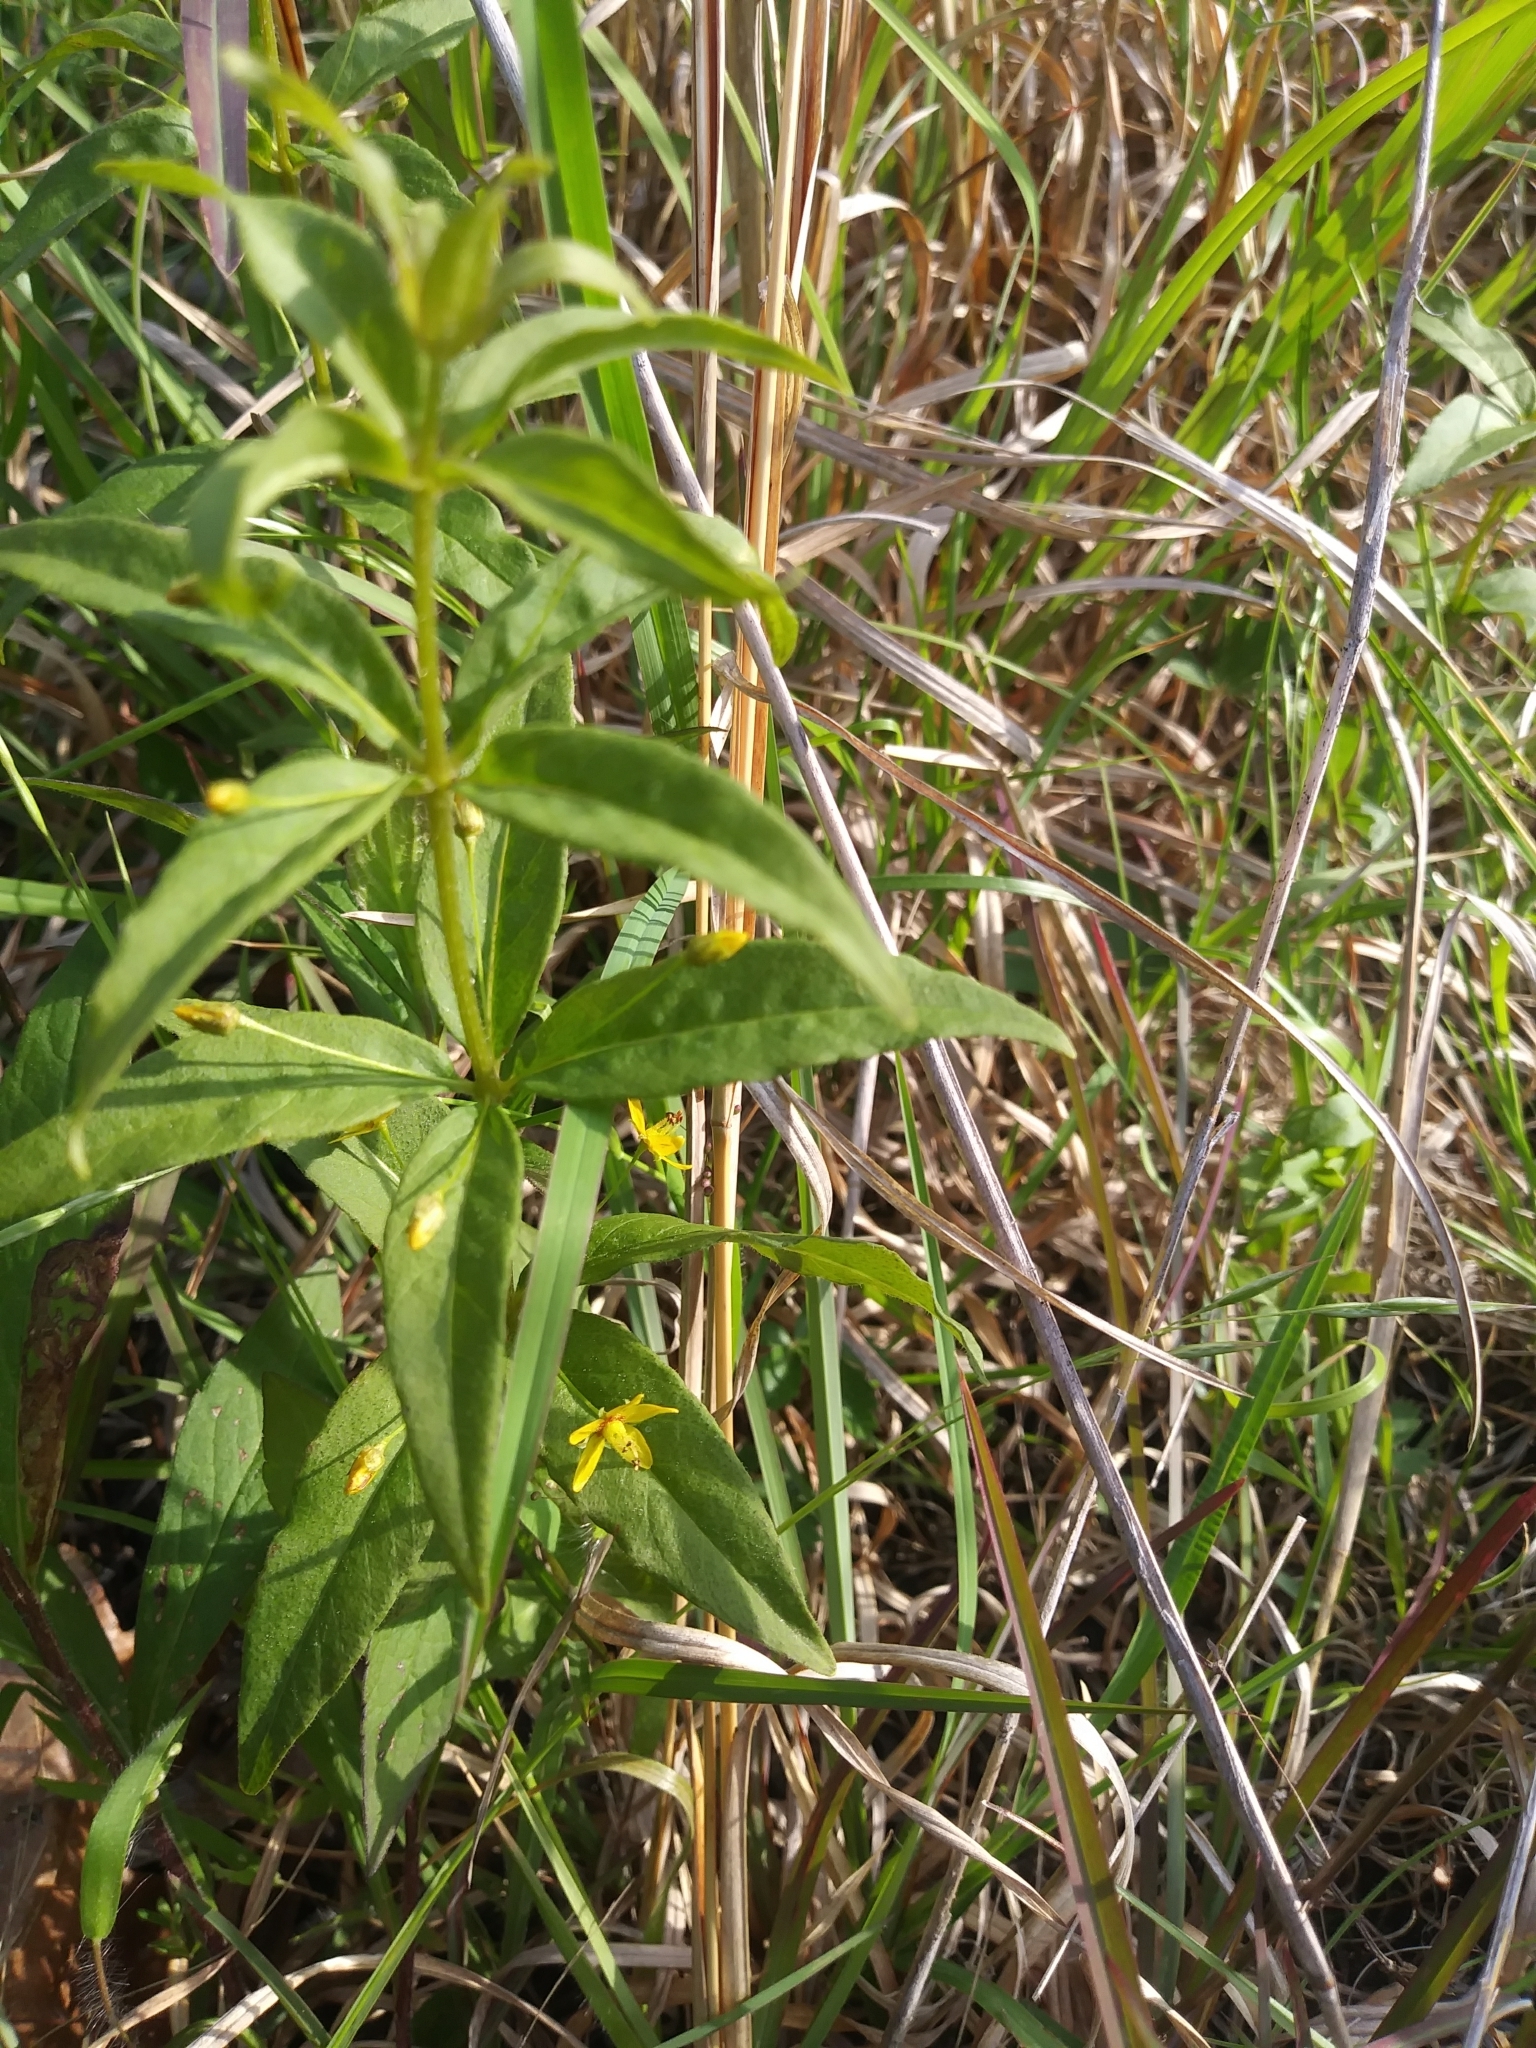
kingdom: Plantae
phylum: Tracheophyta
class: Magnoliopsida
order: Ericales
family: Primulaceae
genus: Lysimachia
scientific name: Lysimachia quadrifolia
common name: Whorled loosestrife
